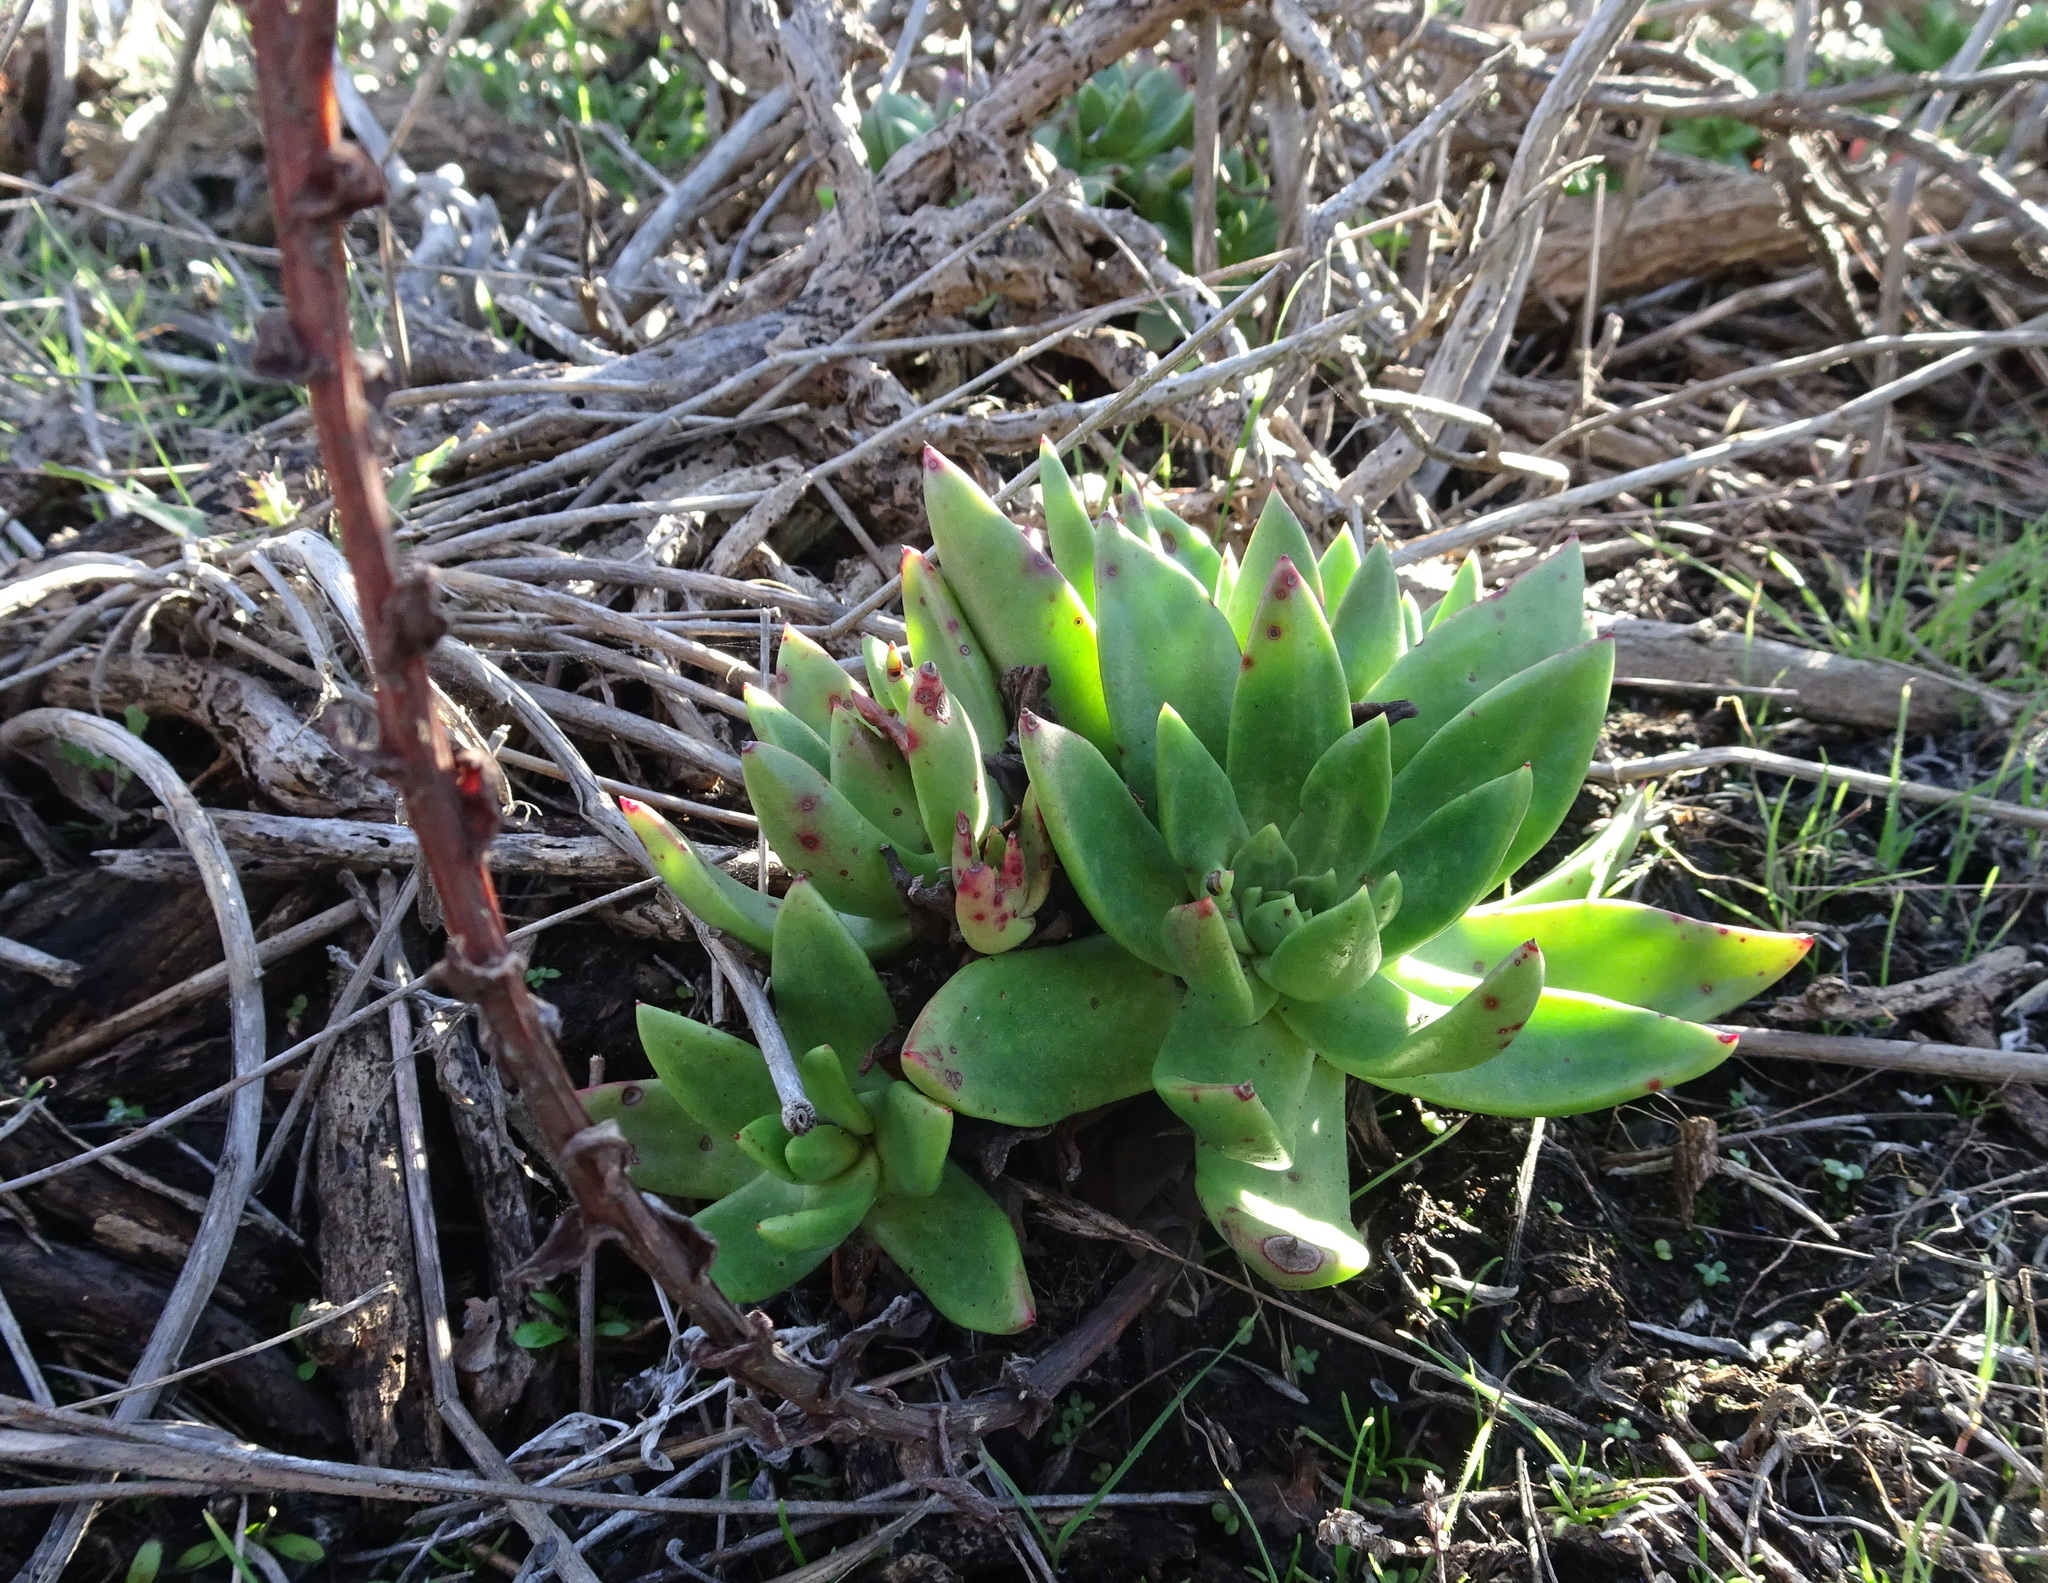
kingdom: Plantae
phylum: Tracheophyta
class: Magnoliopsida
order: Saxifragales
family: Crassulaceae
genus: Dudleya
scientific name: Dudleya farinosa
